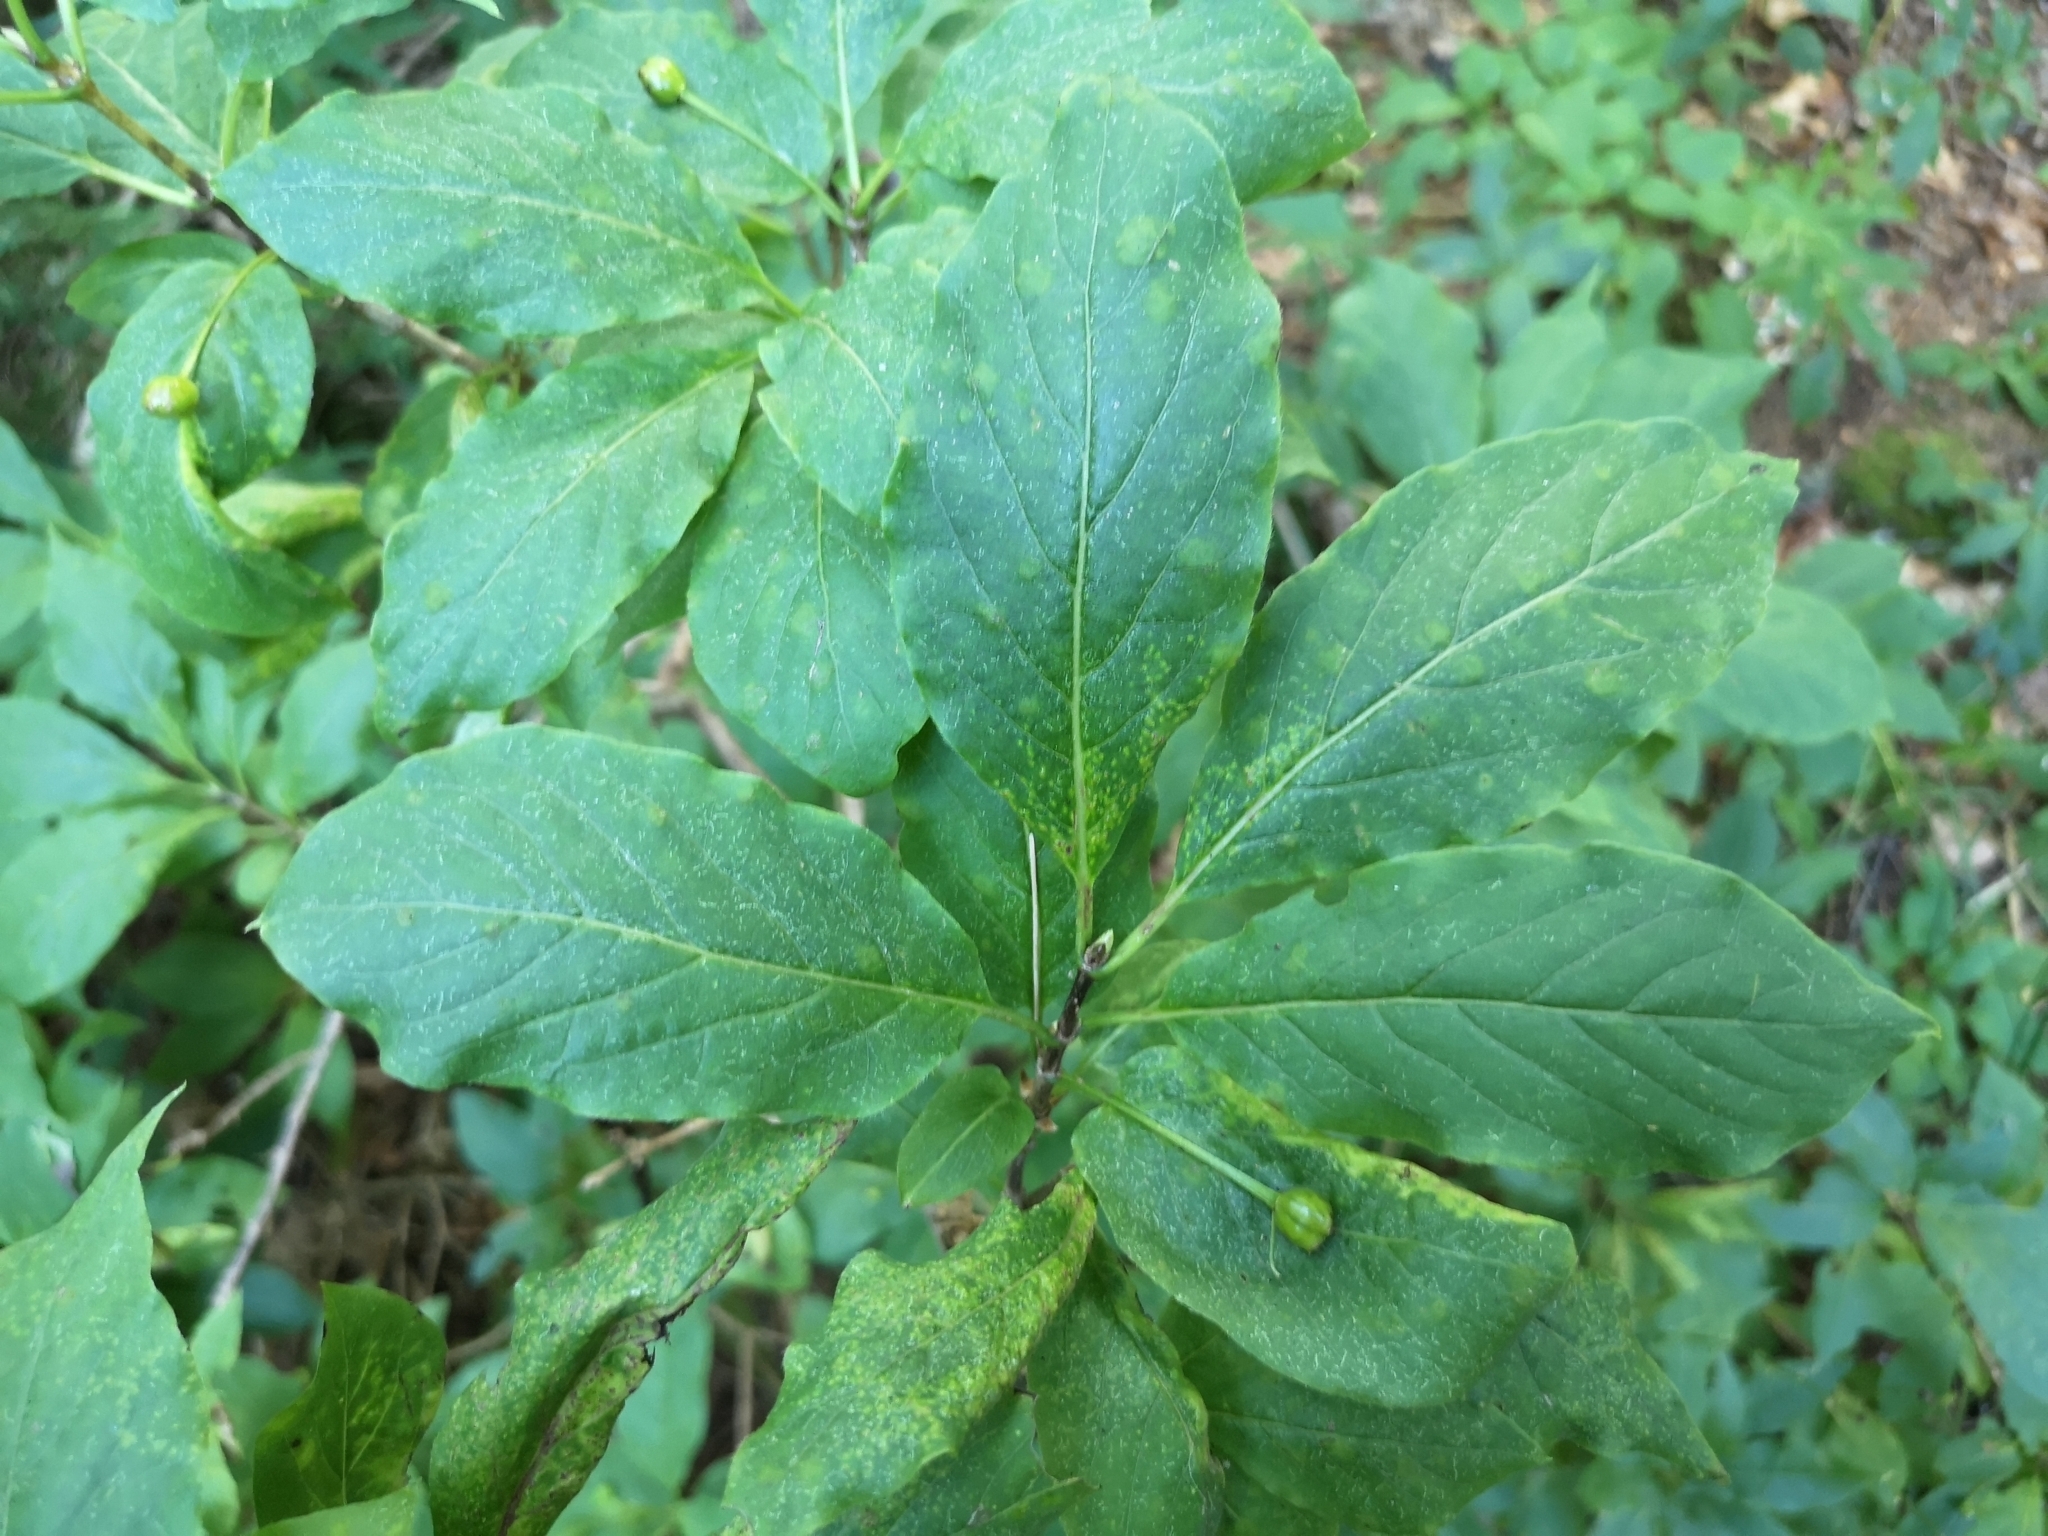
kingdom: Plantae
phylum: Tracheophyta
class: Magnoliopsida
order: Dipsacales
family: Caprifoliaceae
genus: Lonicera
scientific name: Lonicera alpigena
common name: Alpine honeysuckle
